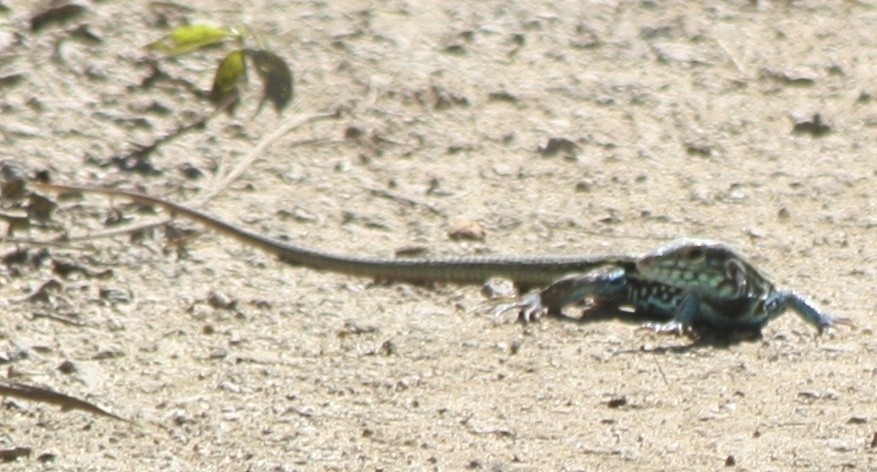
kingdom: Animalia
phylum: Chordata
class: Squamata
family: Teiidae
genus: Aspidoscelis
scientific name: Aspidoscelis lineattissimus
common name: Many-lined whiptail
